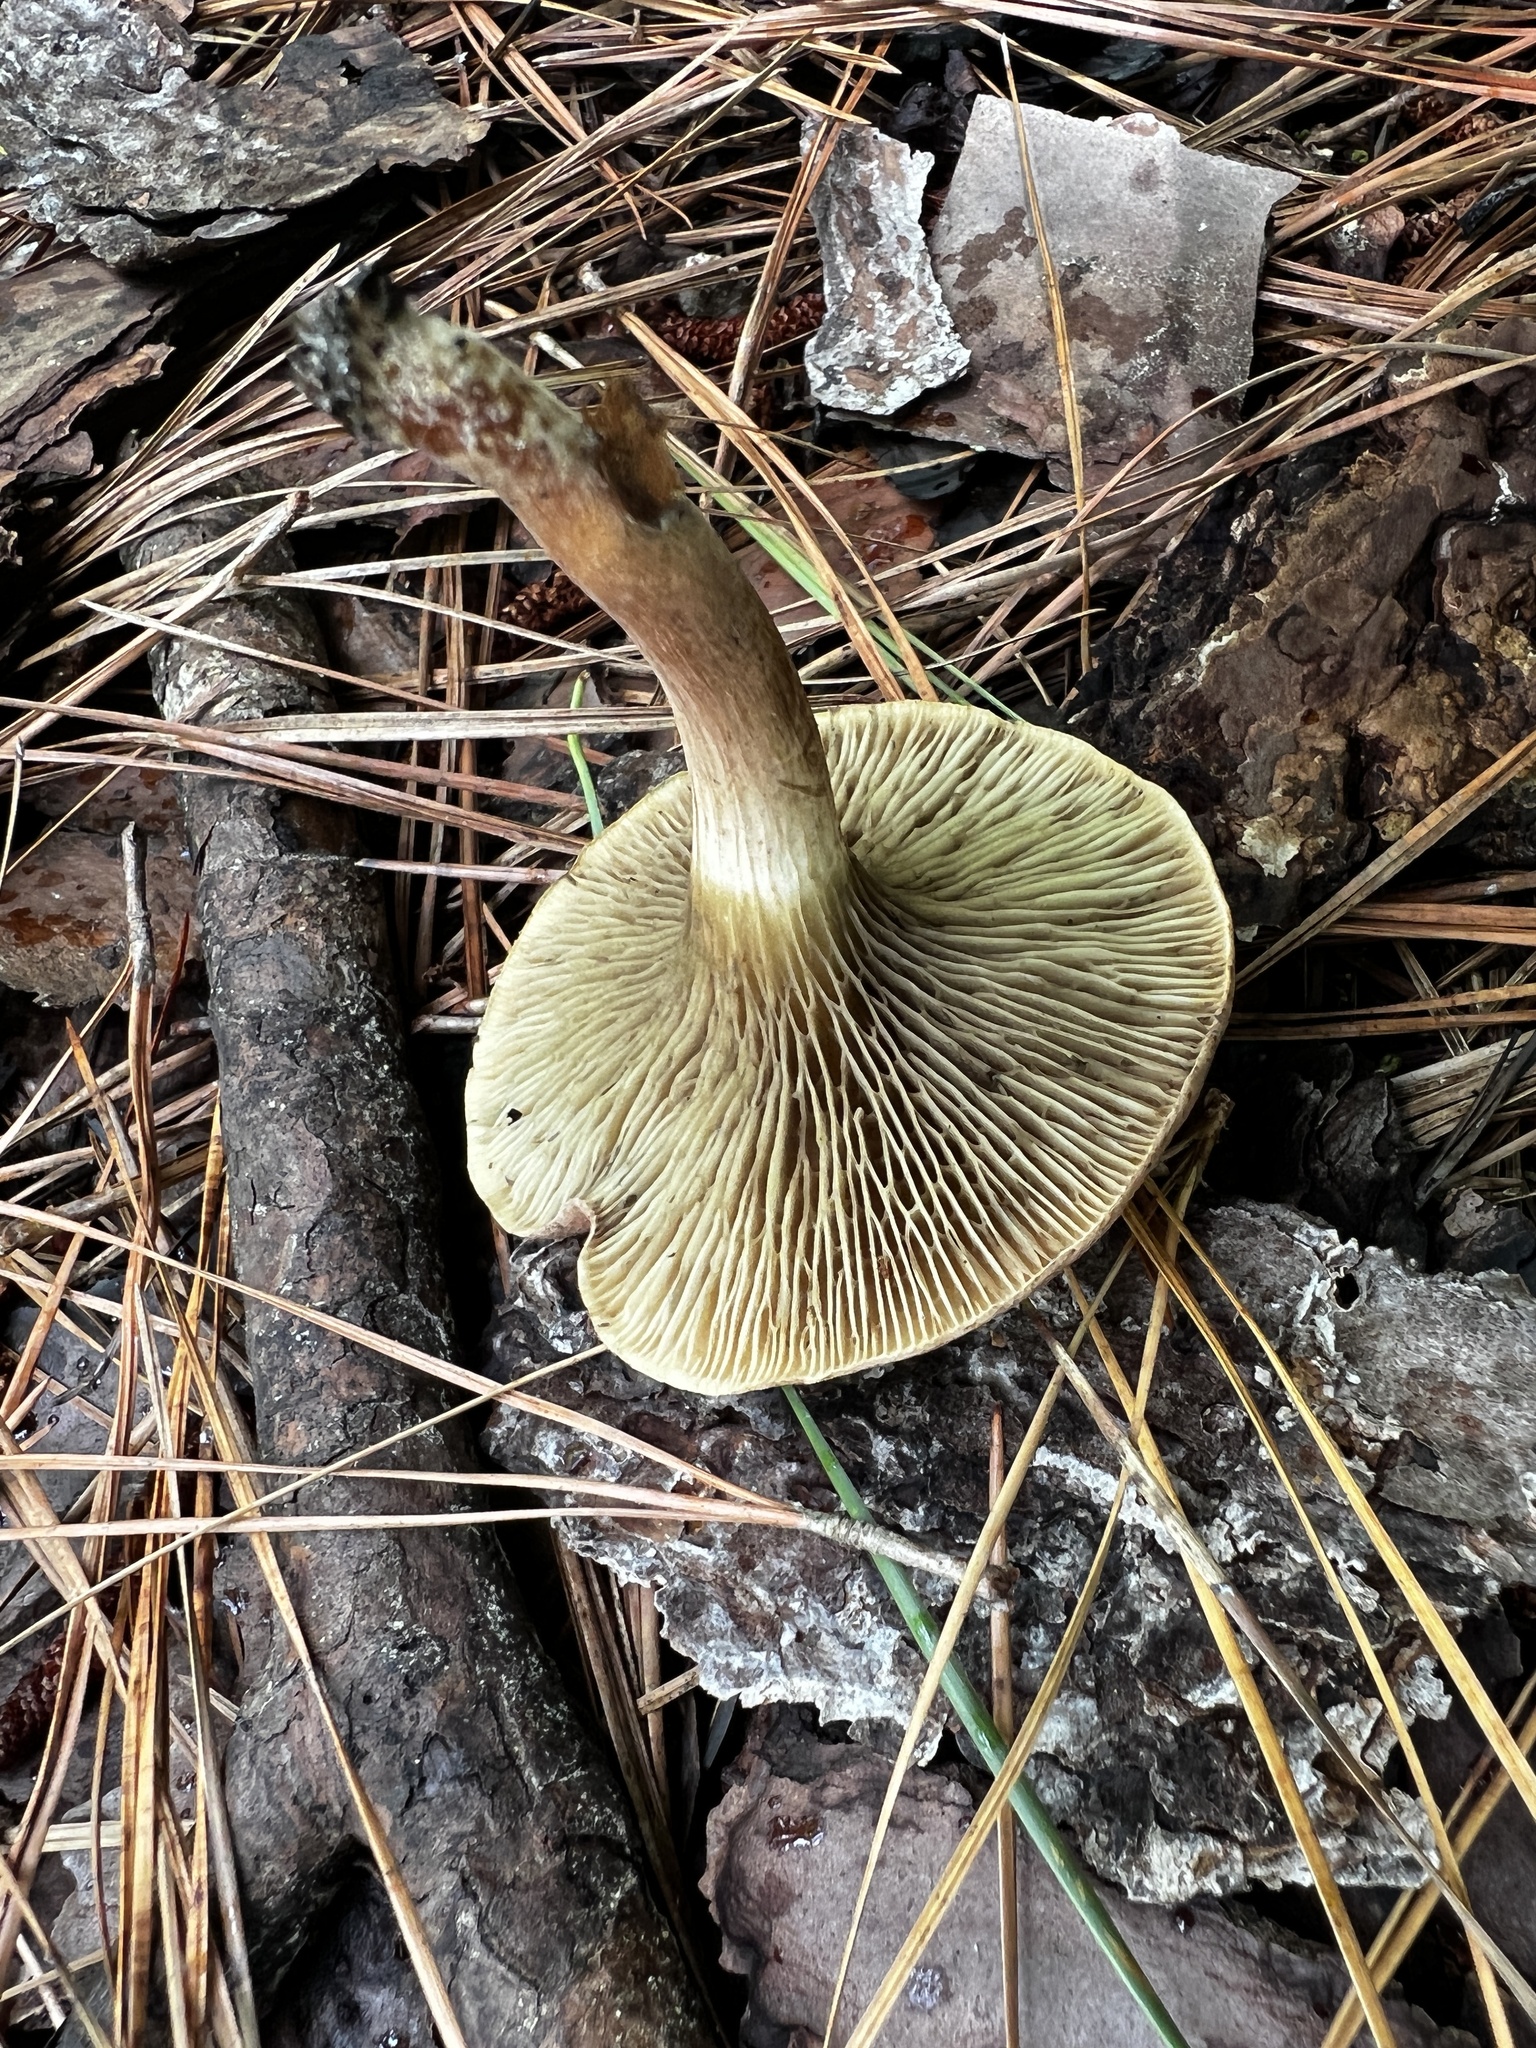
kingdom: Fungi
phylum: Basidiomycota
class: Agaricomycetes
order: Boletales
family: Boletaceae
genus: Phylloporopsis
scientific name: Phylloporopsis boletinoides
